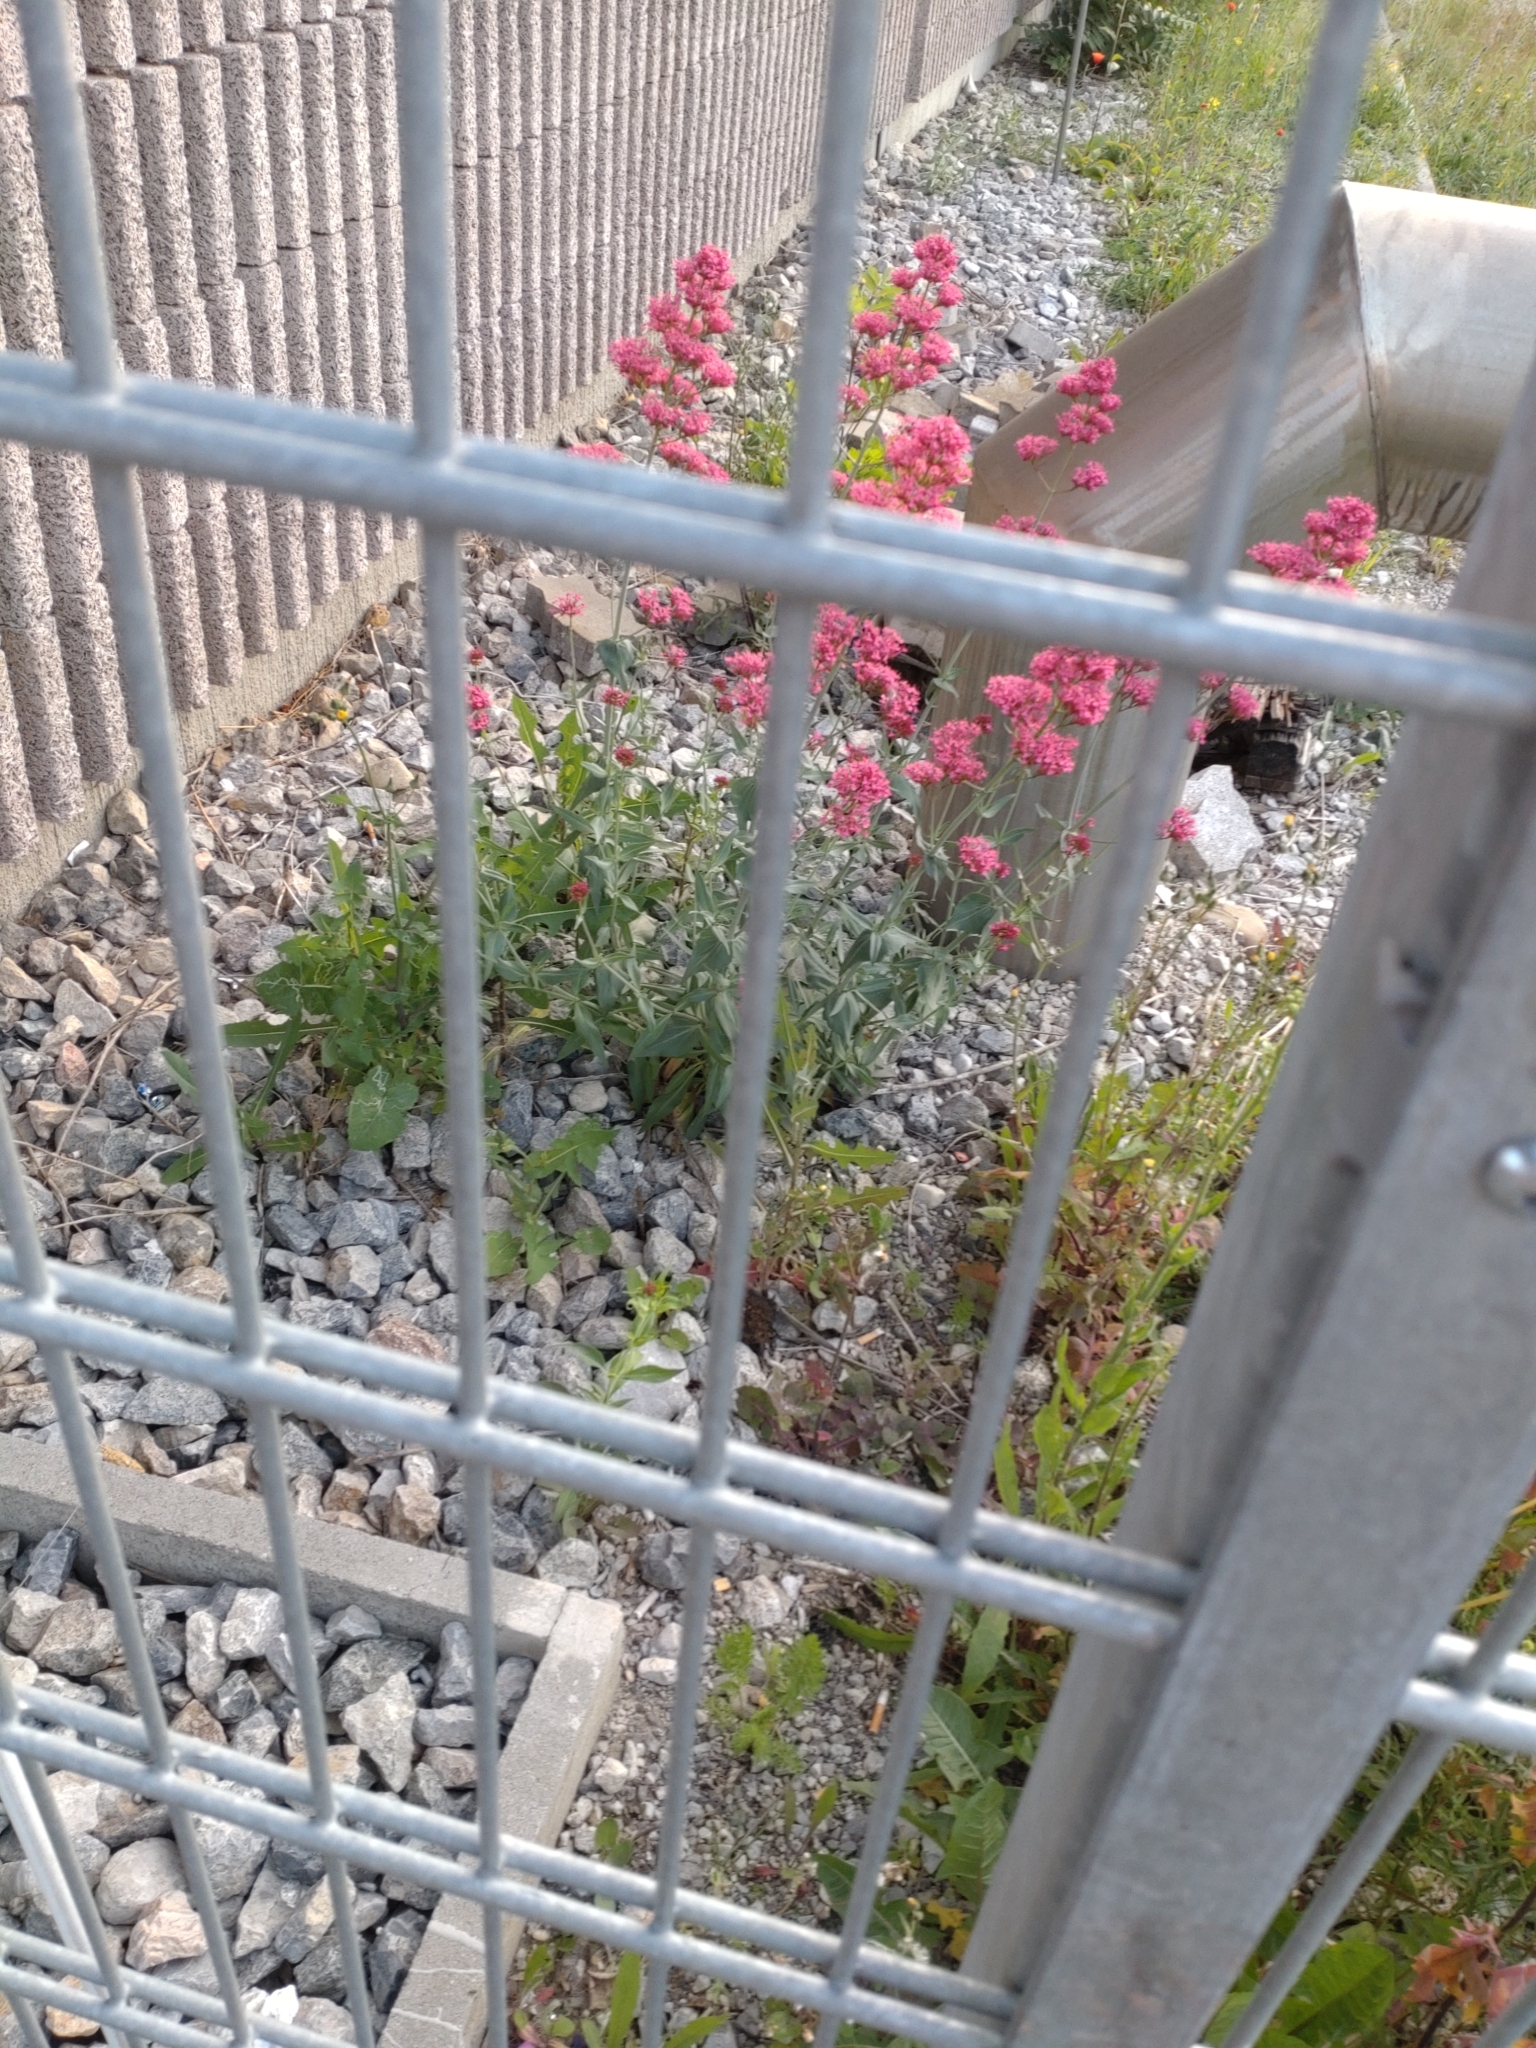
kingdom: Plantae
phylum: Tracheophyta
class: Magnoliopsida
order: Dipsacales
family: Caprifoliaceae
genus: Centranthus
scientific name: Centranthus ruber
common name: Red valerian
